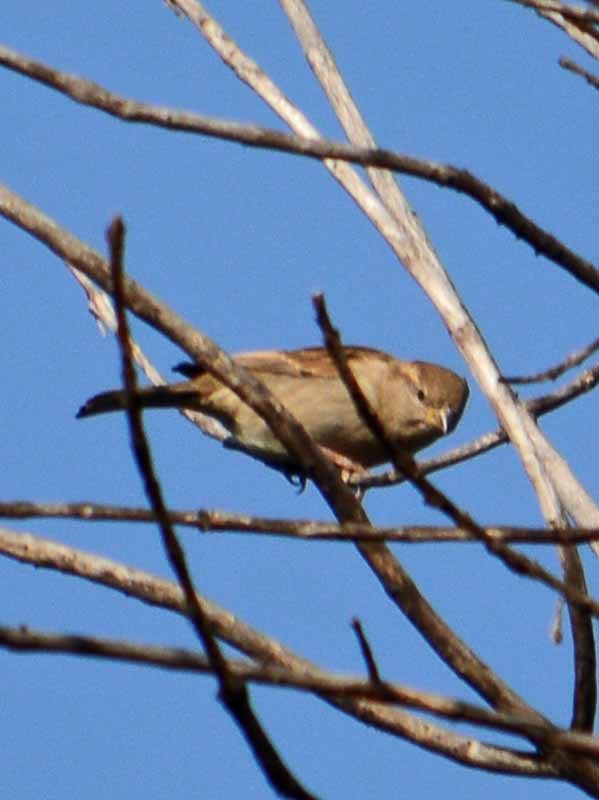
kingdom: Animalia
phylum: Chordata
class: Aves
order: Passeriformes
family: Passeridae
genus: Passer
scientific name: Passer domesticus
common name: House sparrow
